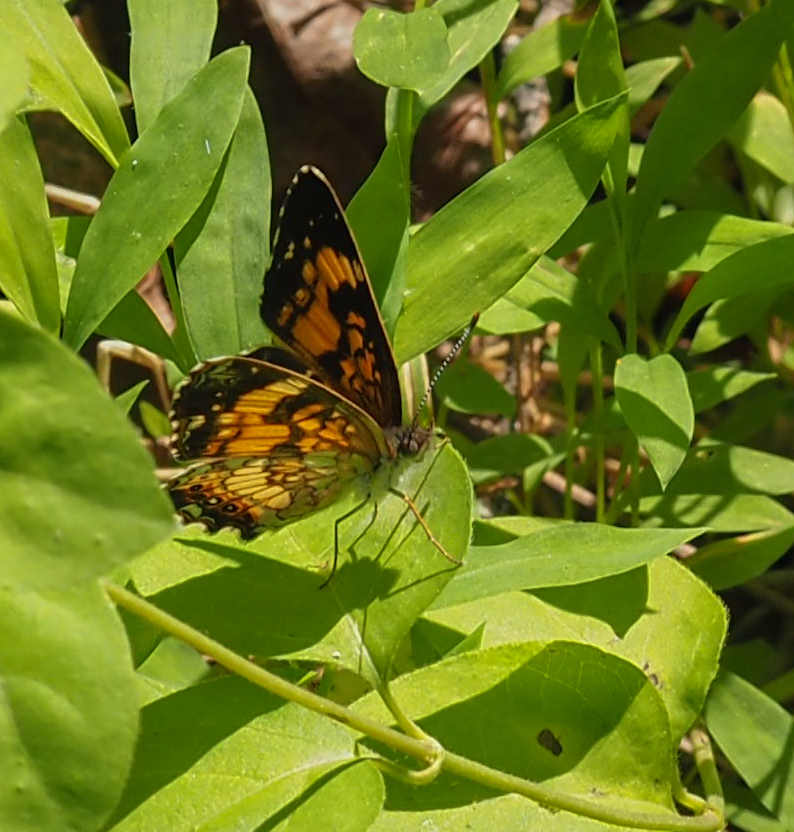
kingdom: Animalia
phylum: Arthropoda
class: Insecta
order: Lepidoptera
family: Nymphalidae
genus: Chlosyne
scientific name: Chlosyne nycteis
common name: Silvery checkerspot
